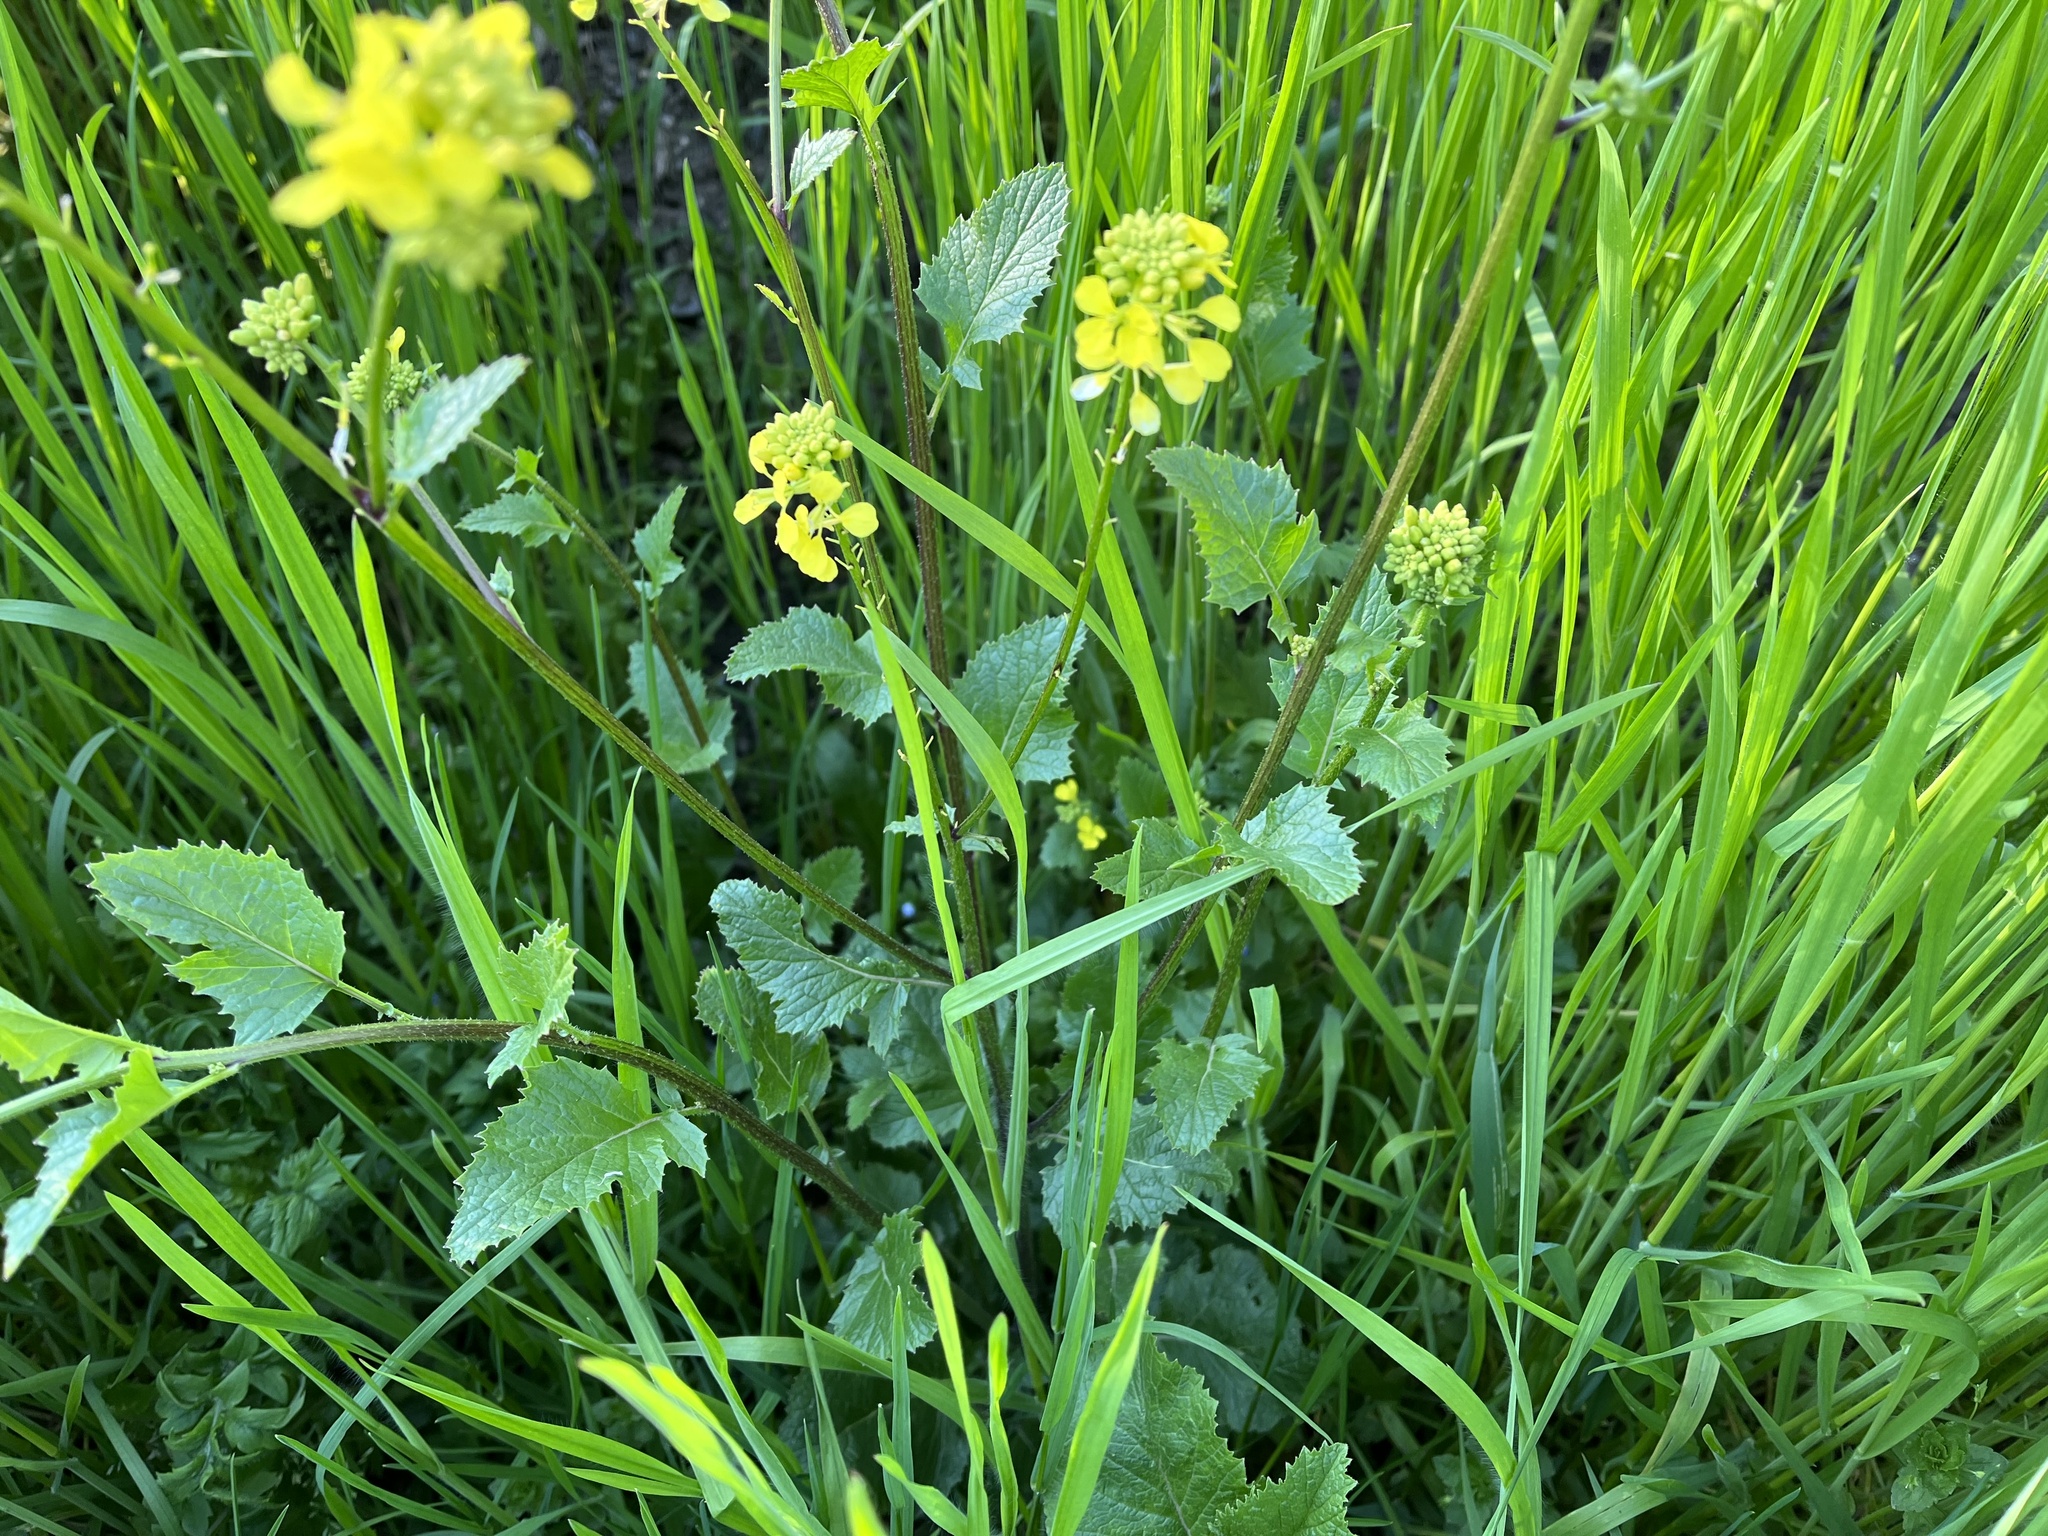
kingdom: Plantae
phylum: Tracheophyta
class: Magnoliopsida
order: Brassicales
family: Brassicaceae
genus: Sinapis
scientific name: Sinapis arvensis
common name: Charlock
